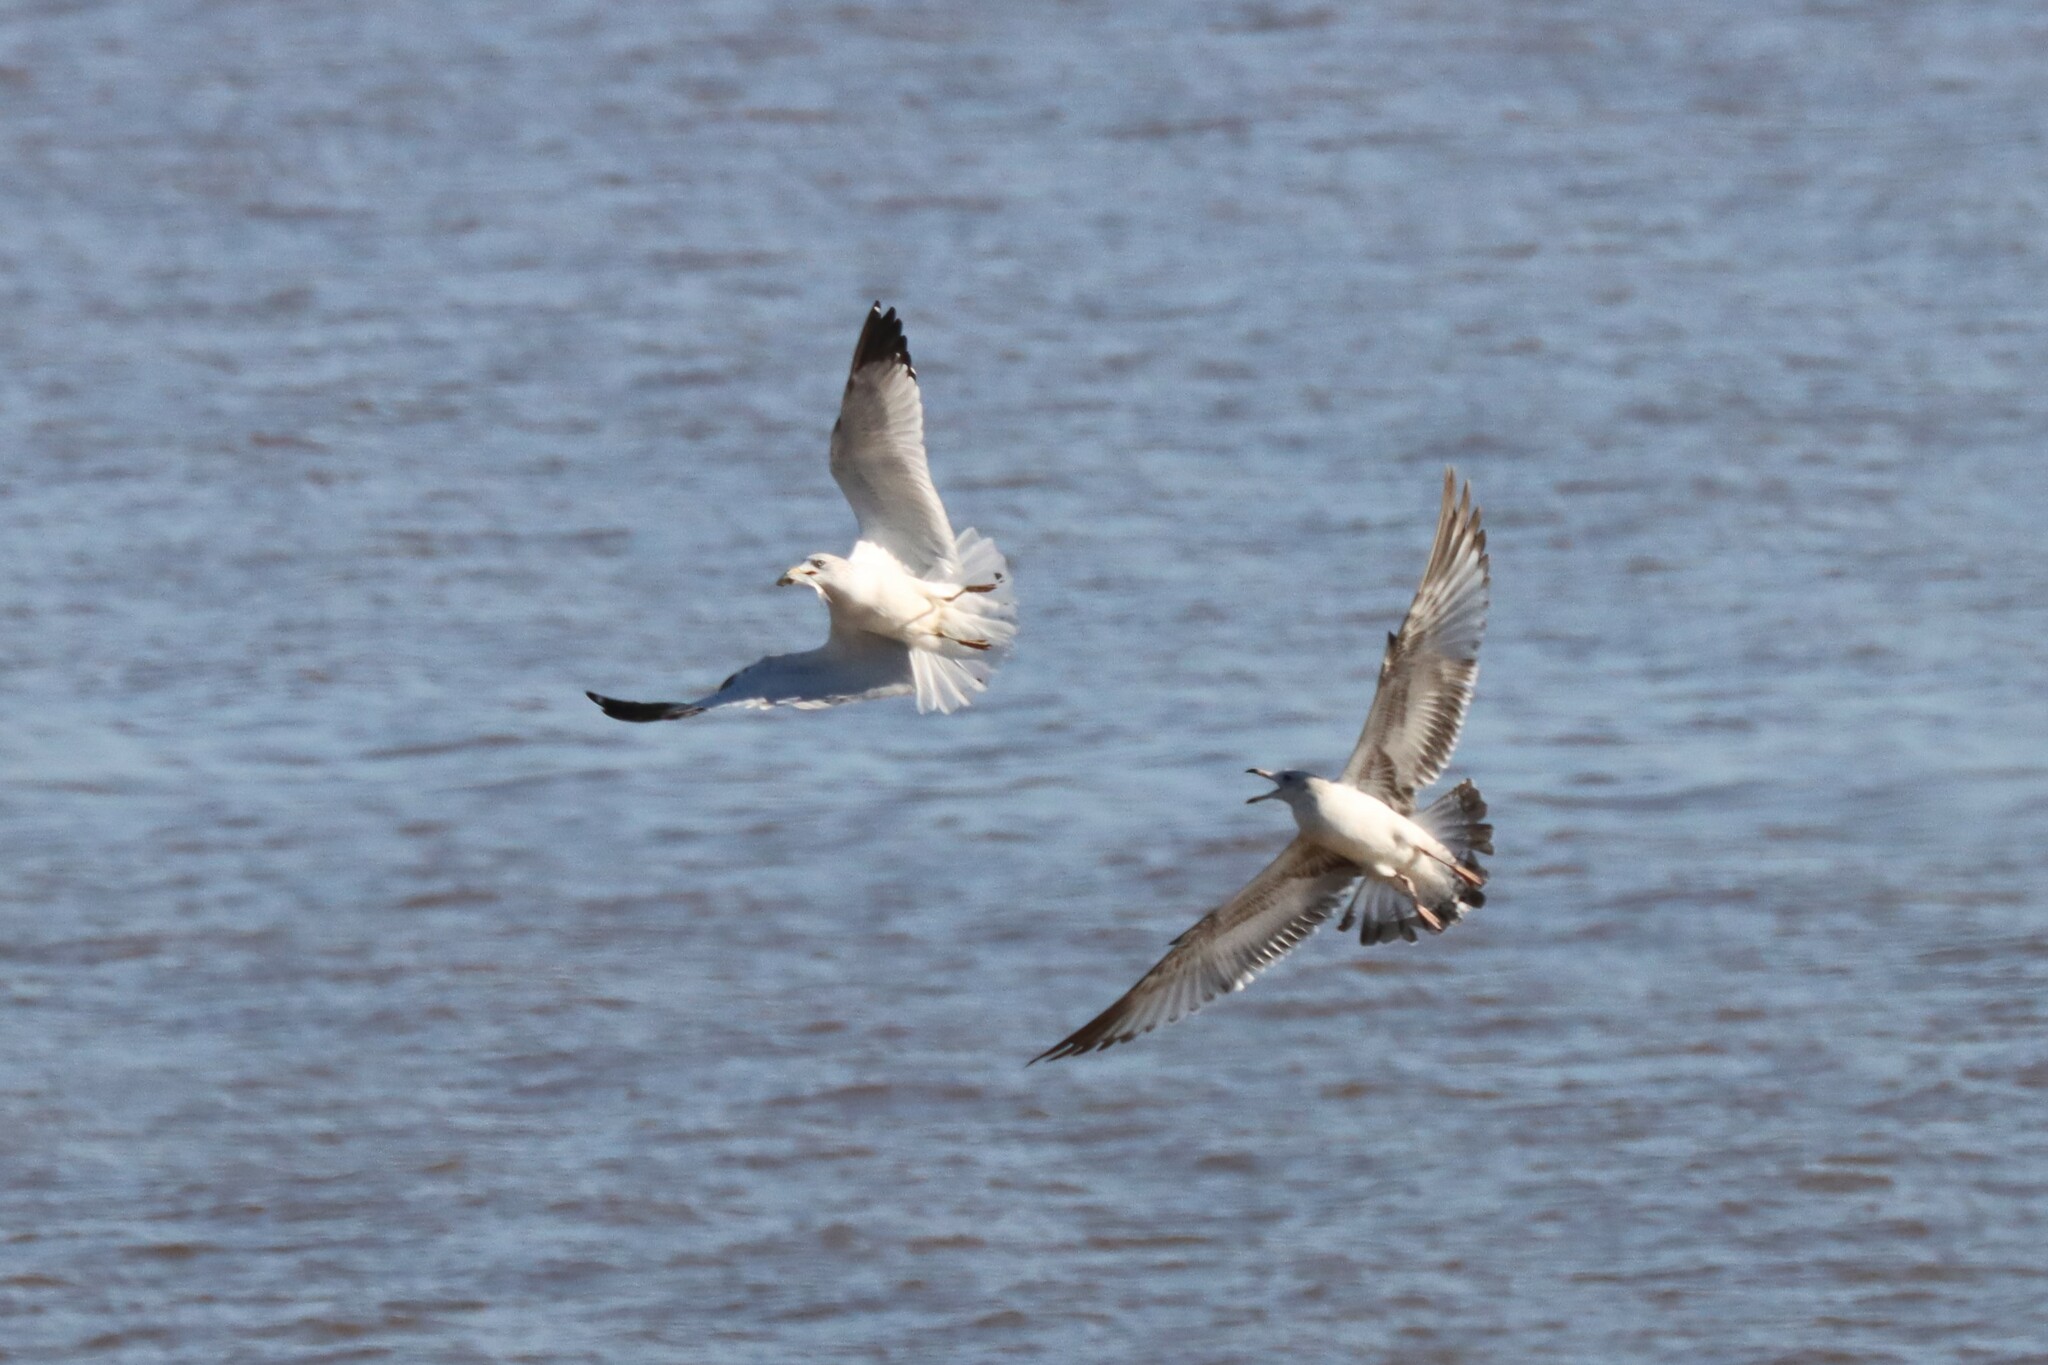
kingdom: Animalia
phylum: Chordata
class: Aves
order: Charadriiformes
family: Laridae
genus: Larus
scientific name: Larus delawarensis
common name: Ring-billed gull
